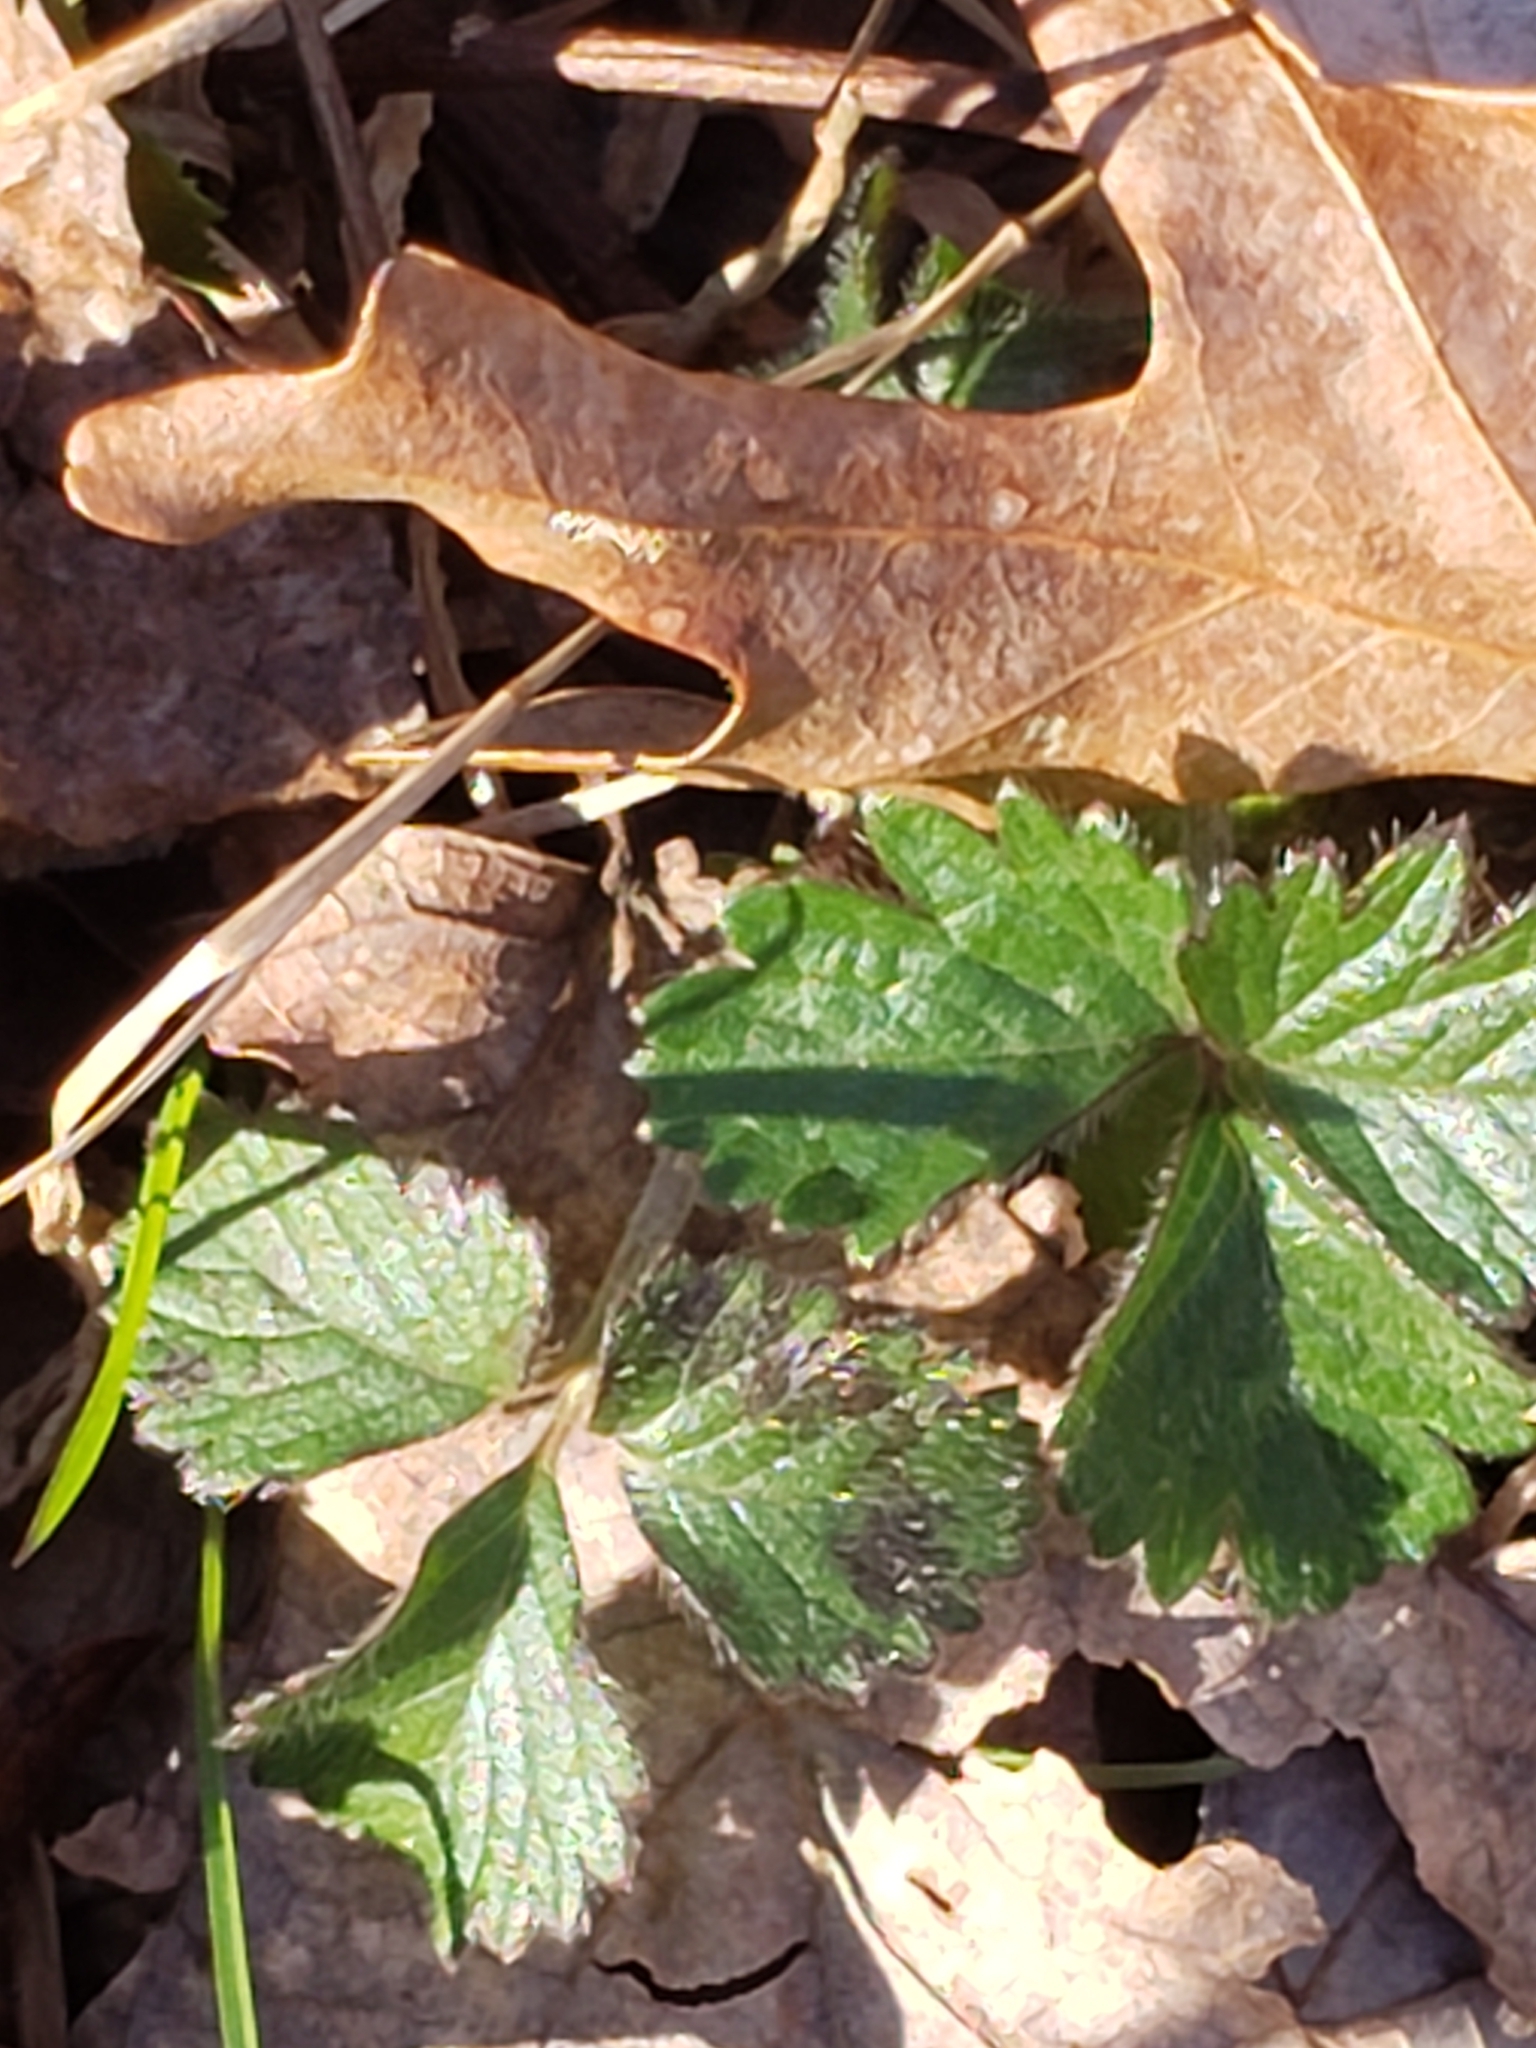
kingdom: Plantae
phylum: Tracheophyta
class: Magnoliopsida
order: Rosales
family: Rosaceae
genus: Potentilla
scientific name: Potentilla indica
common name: Yellow-flowered strawberry
